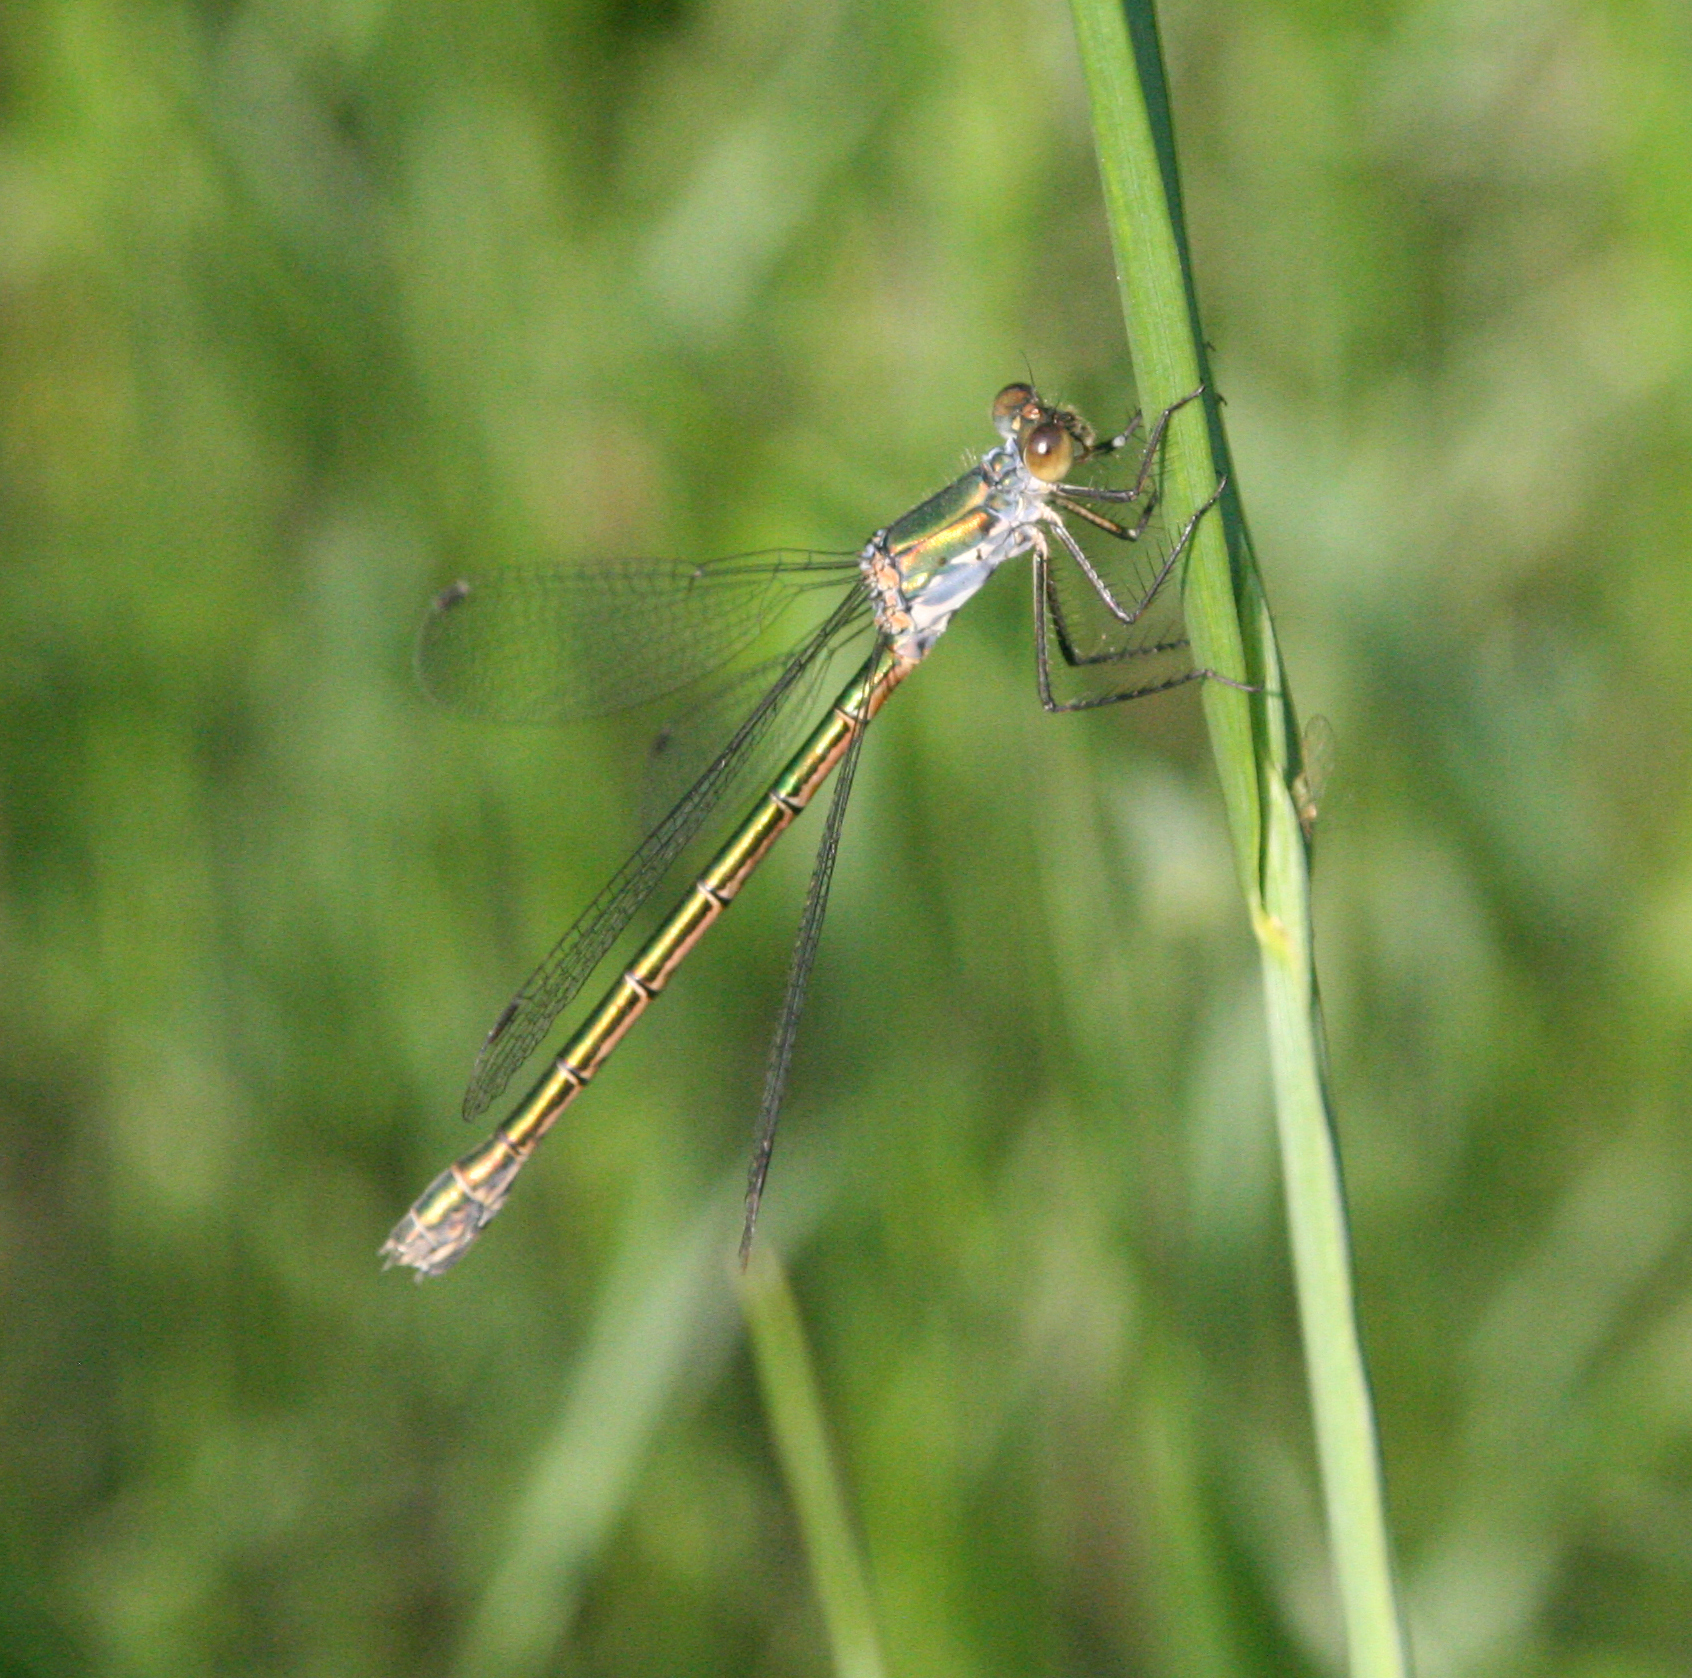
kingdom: Animalia
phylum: Arthropoda
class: Insecta
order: Odonata
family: Lestidae
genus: Lestes
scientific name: Lestes dryas
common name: Scarce emerald damselfly
